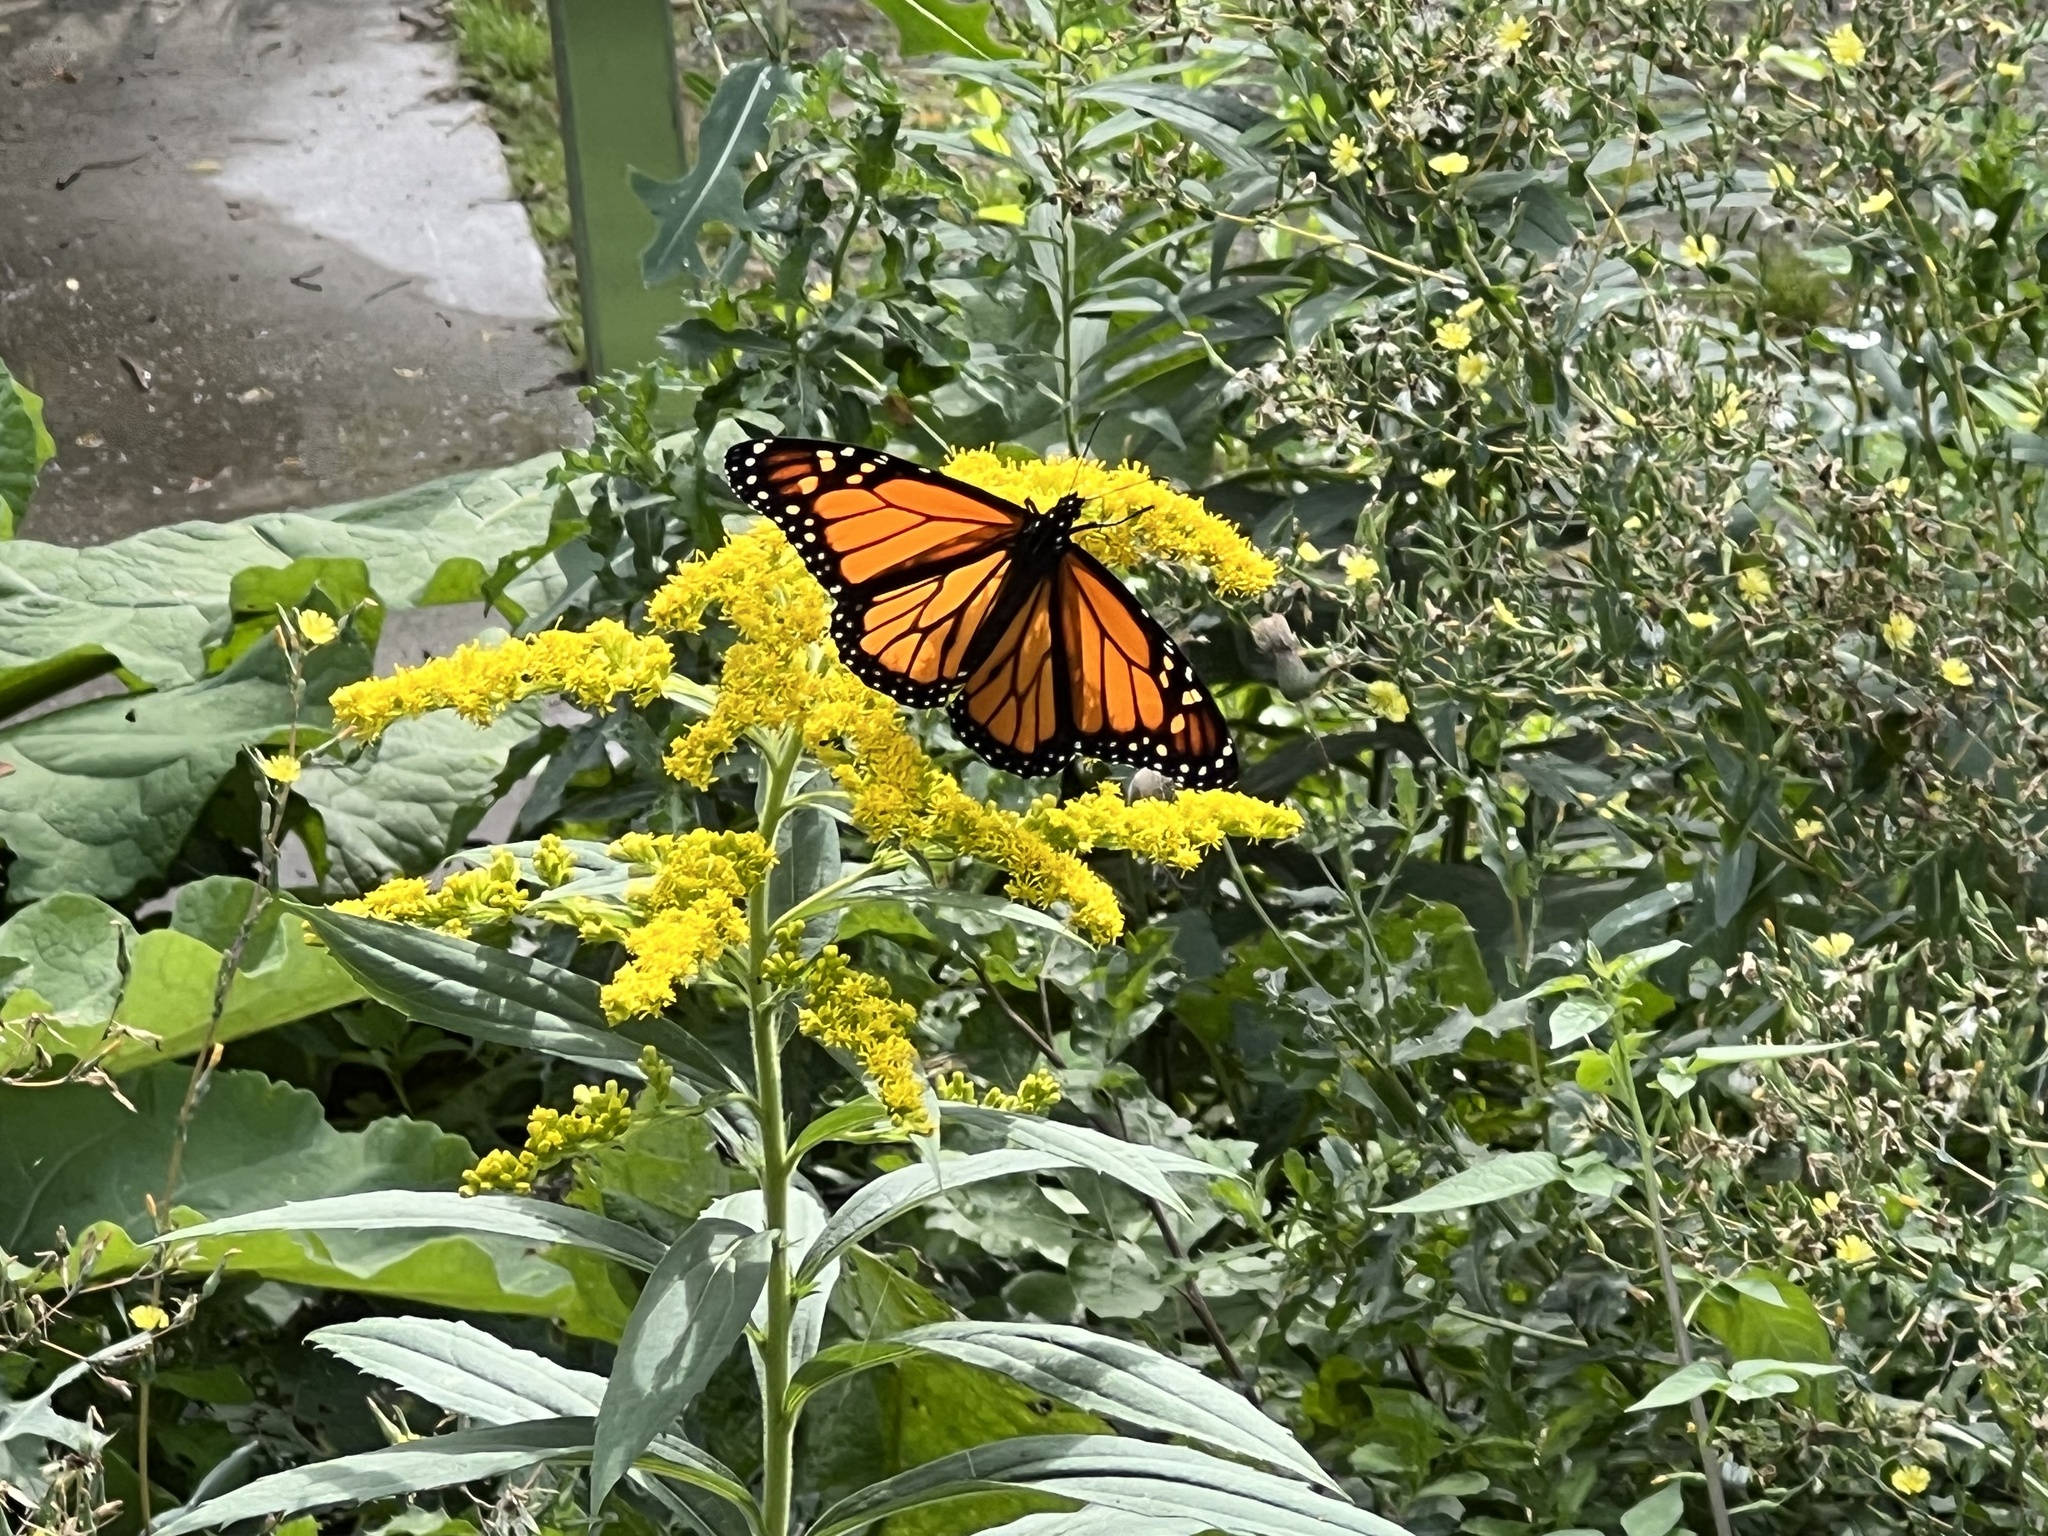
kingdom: Animalia
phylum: Arthropoda
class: Insecta
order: Lepidoptera
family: Nymphalidae
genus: Danaus
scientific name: Danaus plexippus
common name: Monarch
